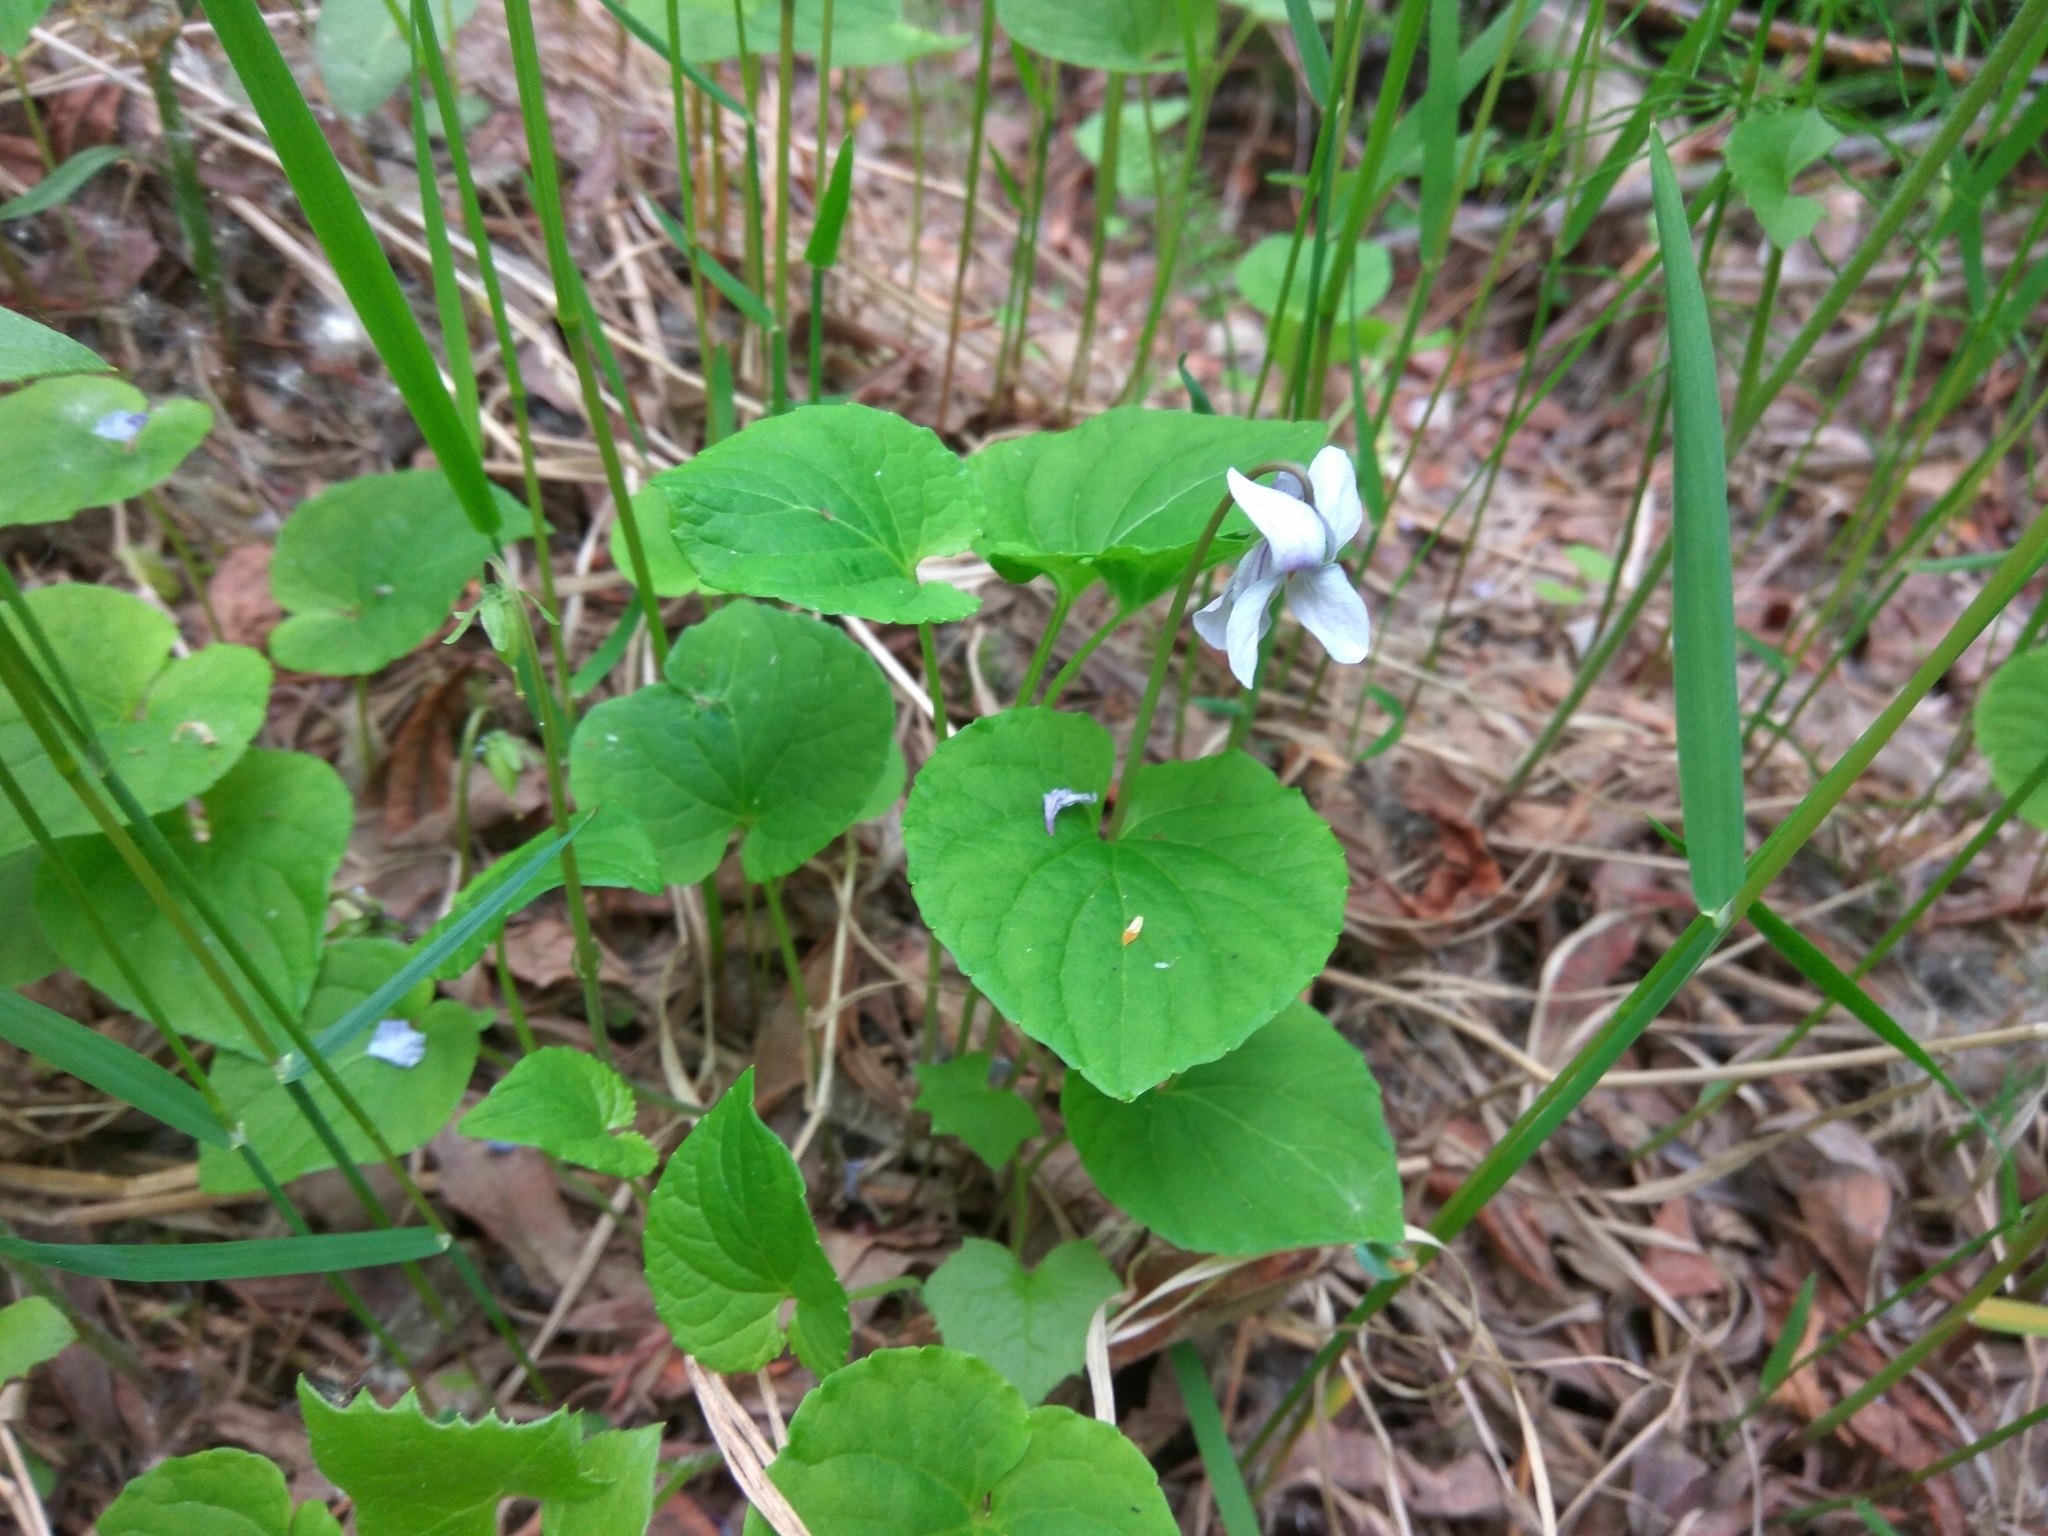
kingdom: Plantae
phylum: Tracheophyta
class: Magnoliopsida
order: Malpighiales
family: Violaceae
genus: Viola
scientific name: Viola epipsila
